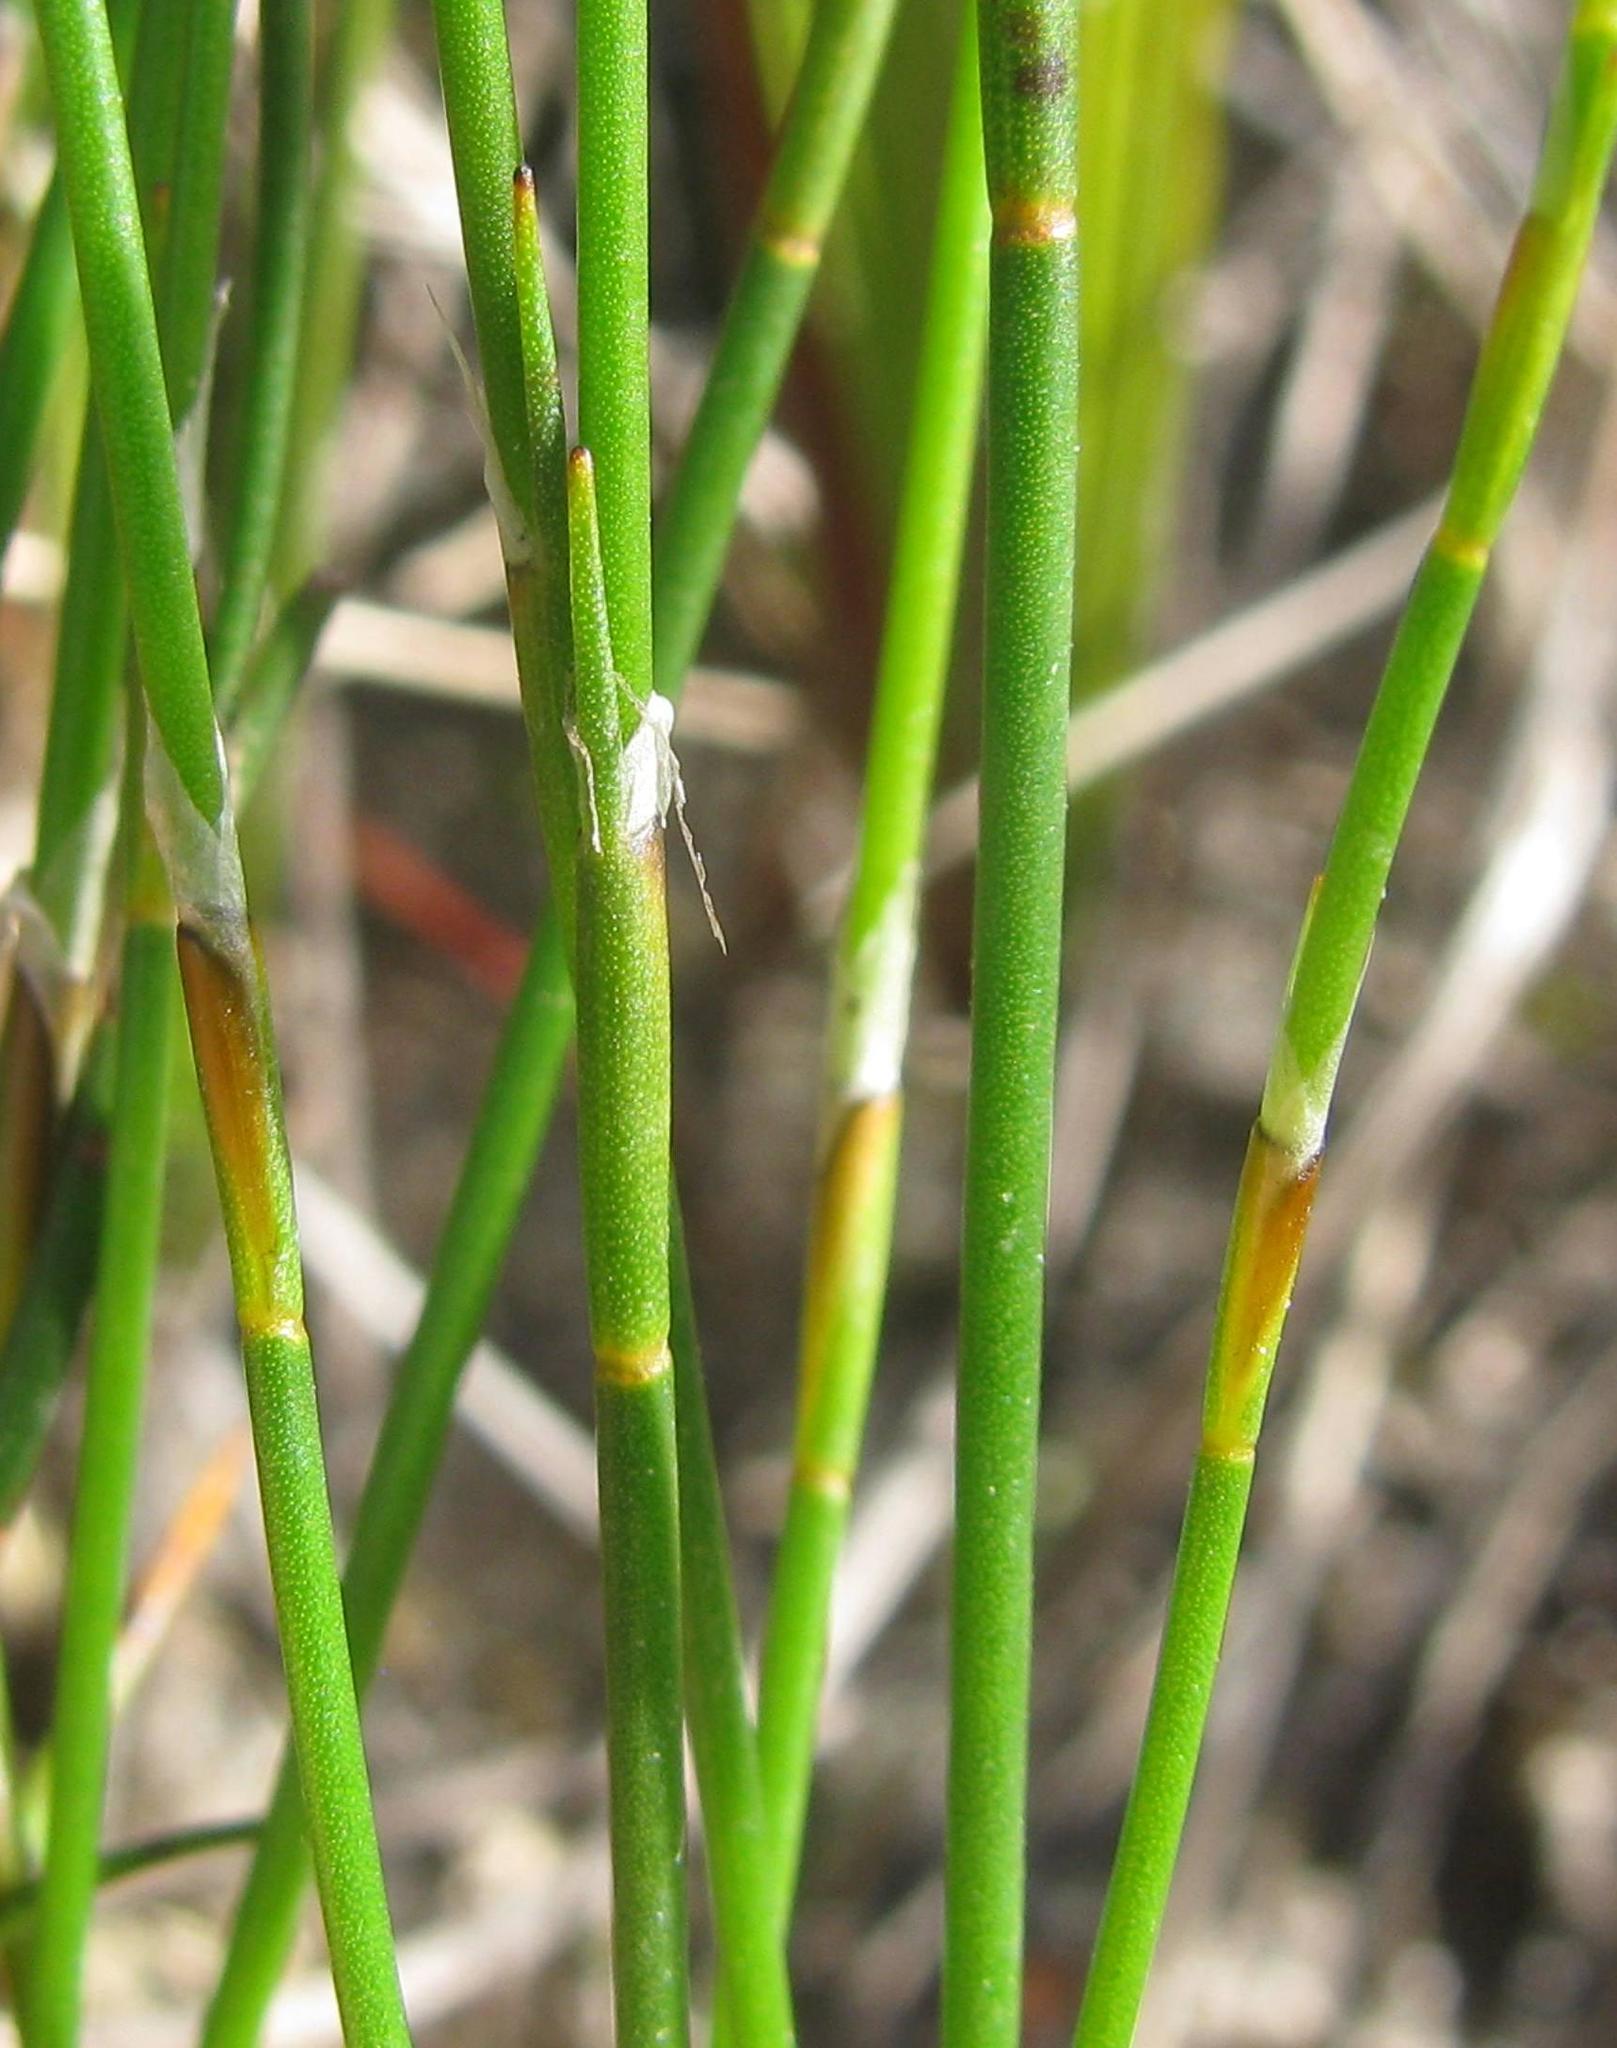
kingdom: Plantae
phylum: Tracheophyta
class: Liliopsida
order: Poales
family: Restionaceae
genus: Restio
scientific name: Restio pratensis
